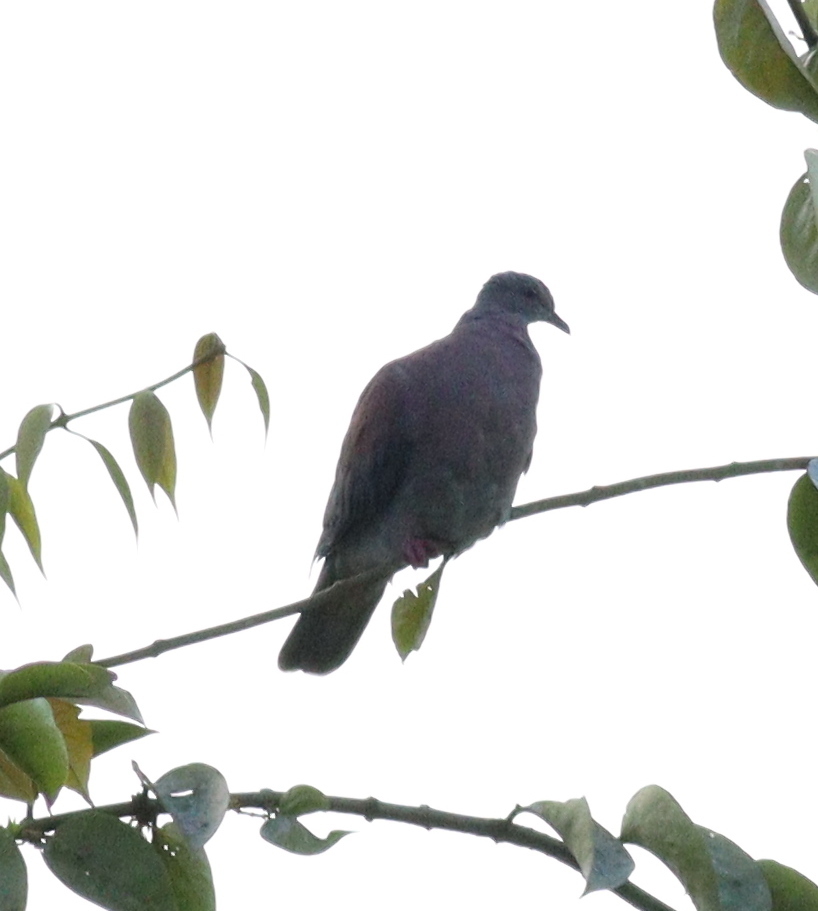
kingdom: Animalia
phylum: Chordata
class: Aves
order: Columbiformes
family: Columbidae
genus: Patagioenas
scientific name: Patagioenas cayennensis
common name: Pale-vented pigeon
